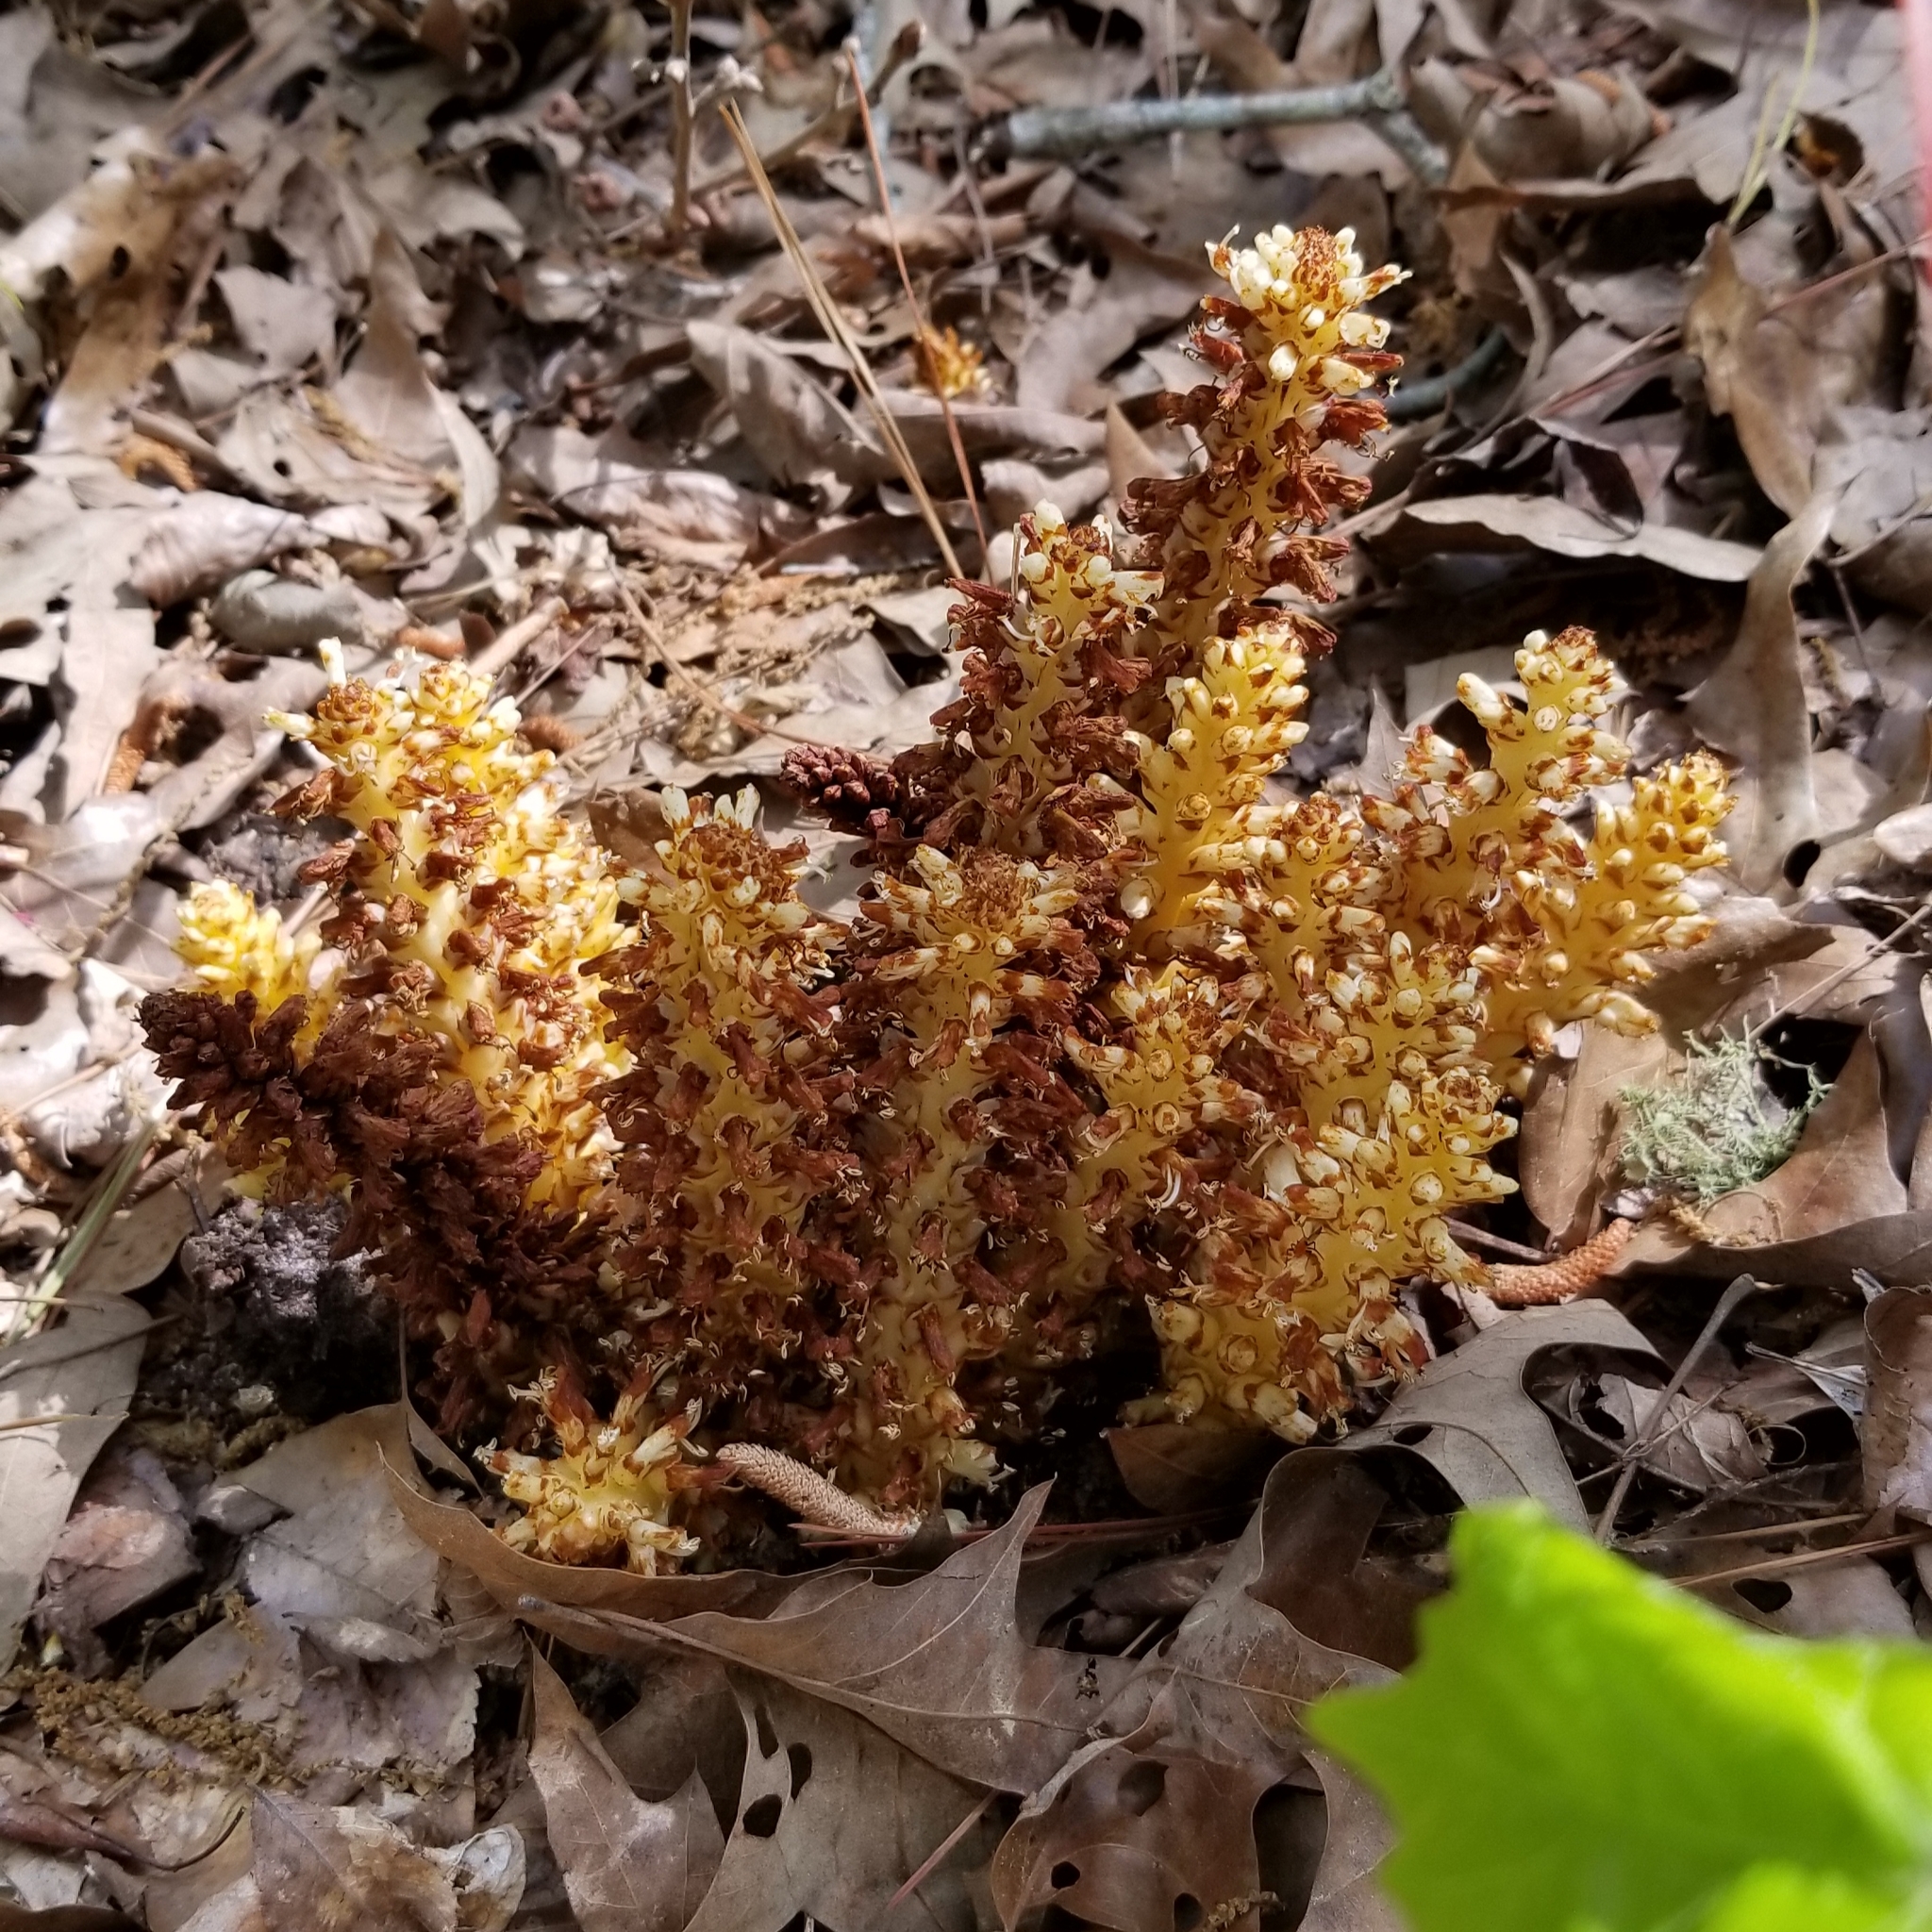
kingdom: Plantae
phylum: Tracheophyta
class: Magnoliopsida
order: Lamiales
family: Orobanchaceae
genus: Conopholis
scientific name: Conopholis americana
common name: American cancer-root
